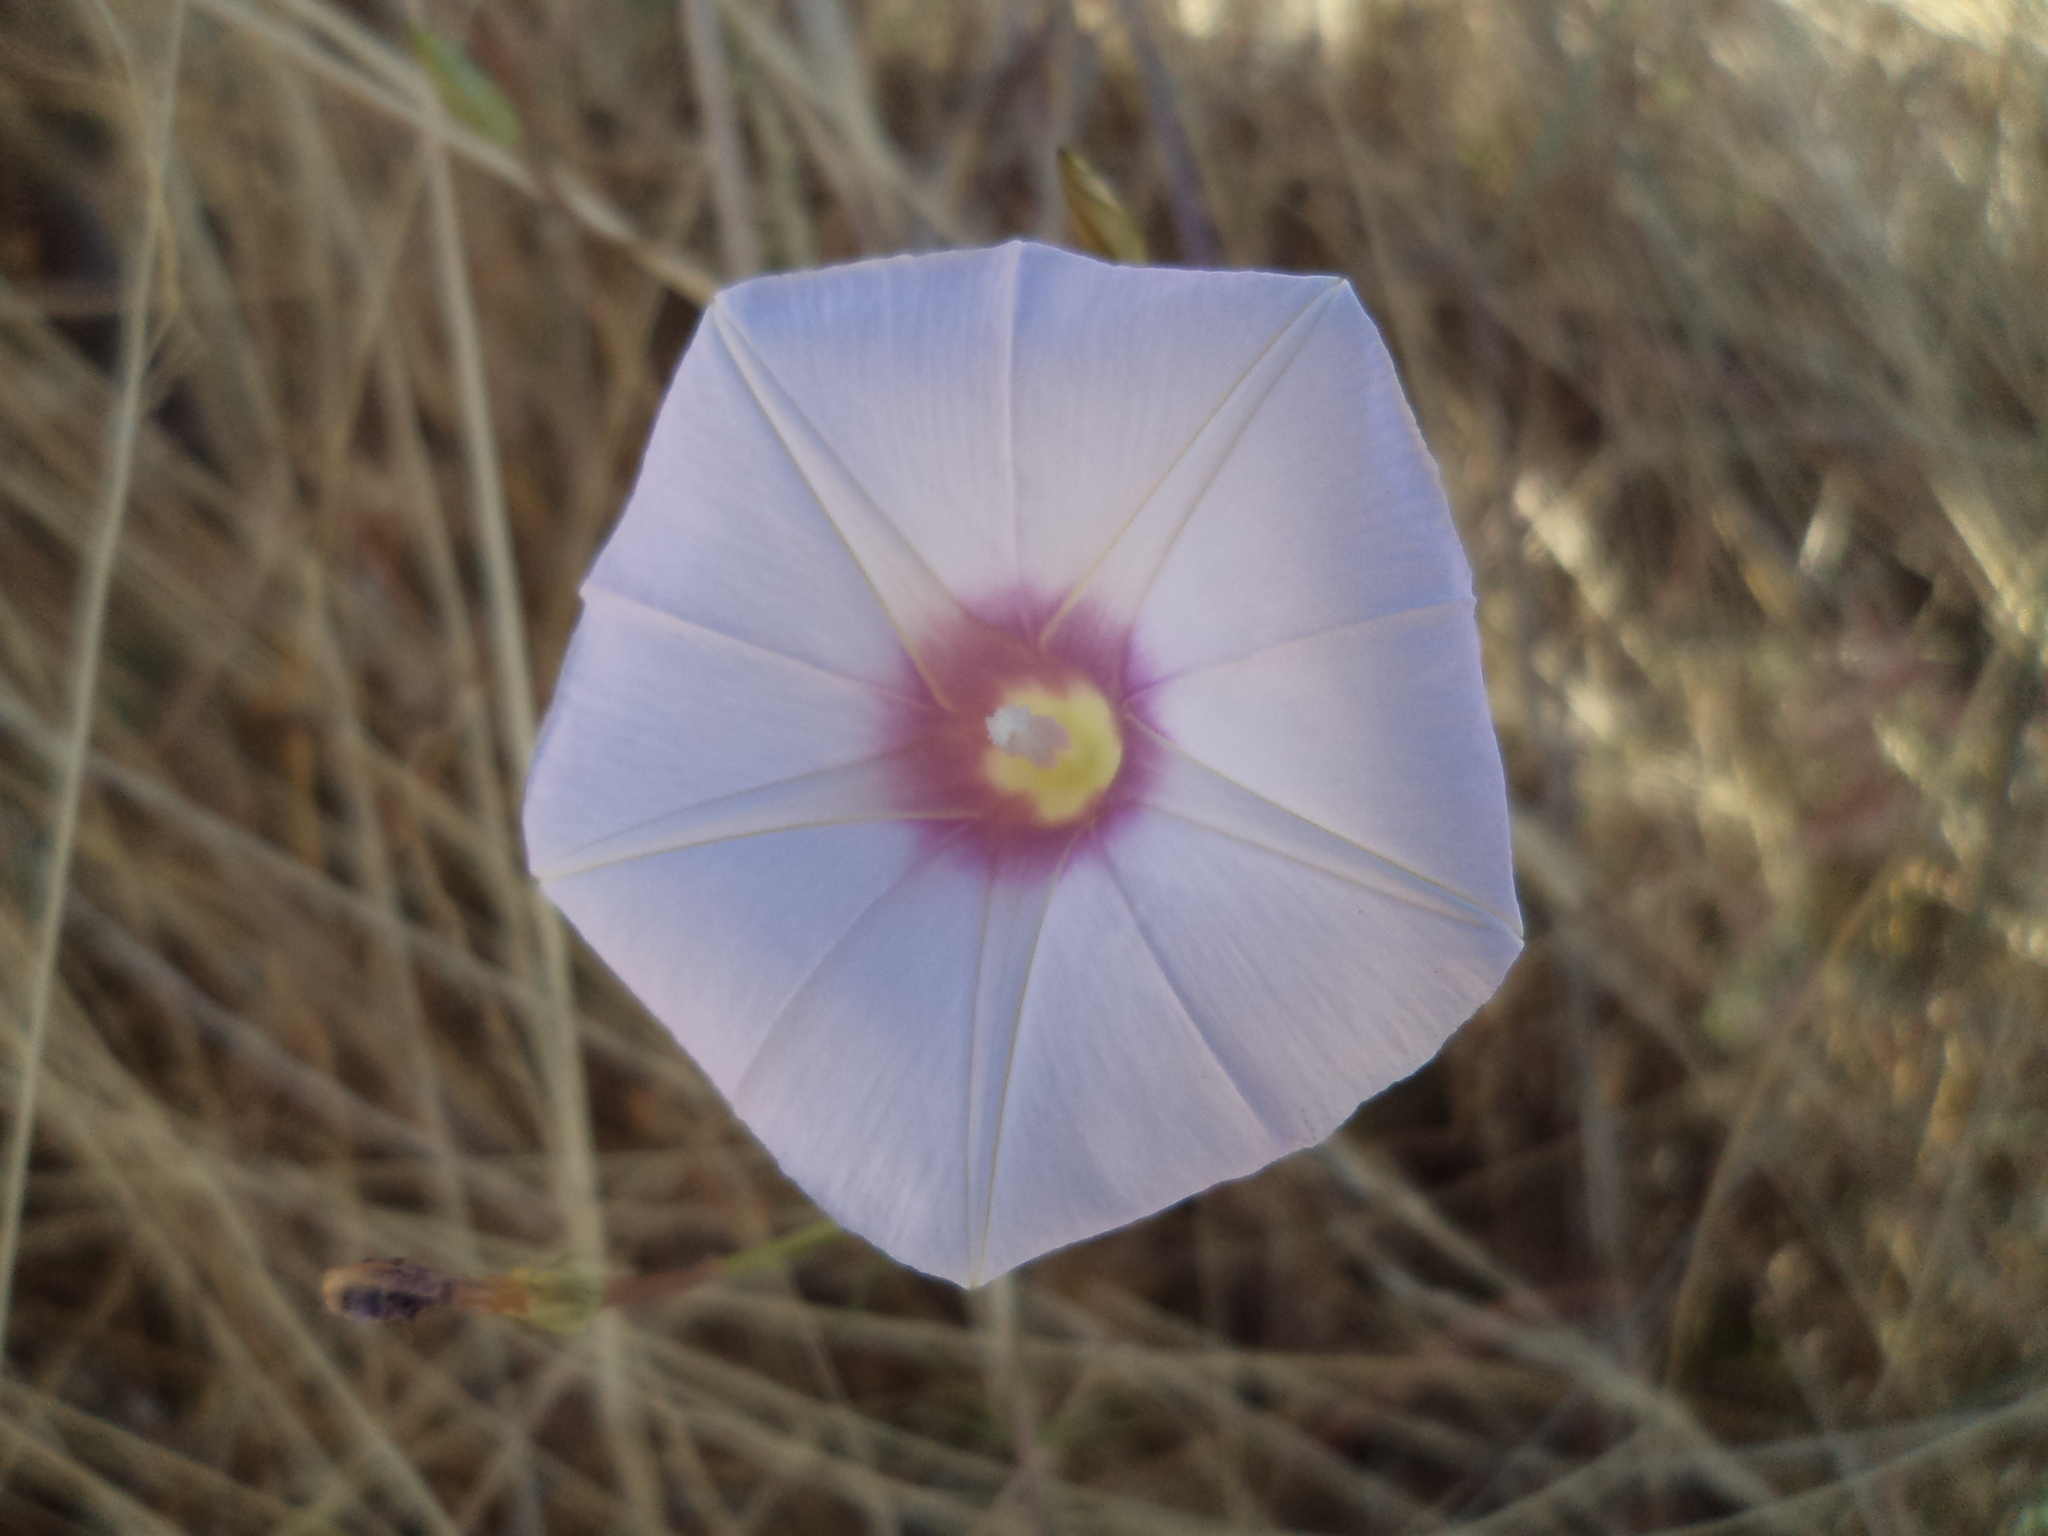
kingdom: Plantae
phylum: Tracheophyta
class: Magnoliopsida
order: Solanales
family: Convolvulaceae
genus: Ipomoea
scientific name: Ipomoea ternifolia
